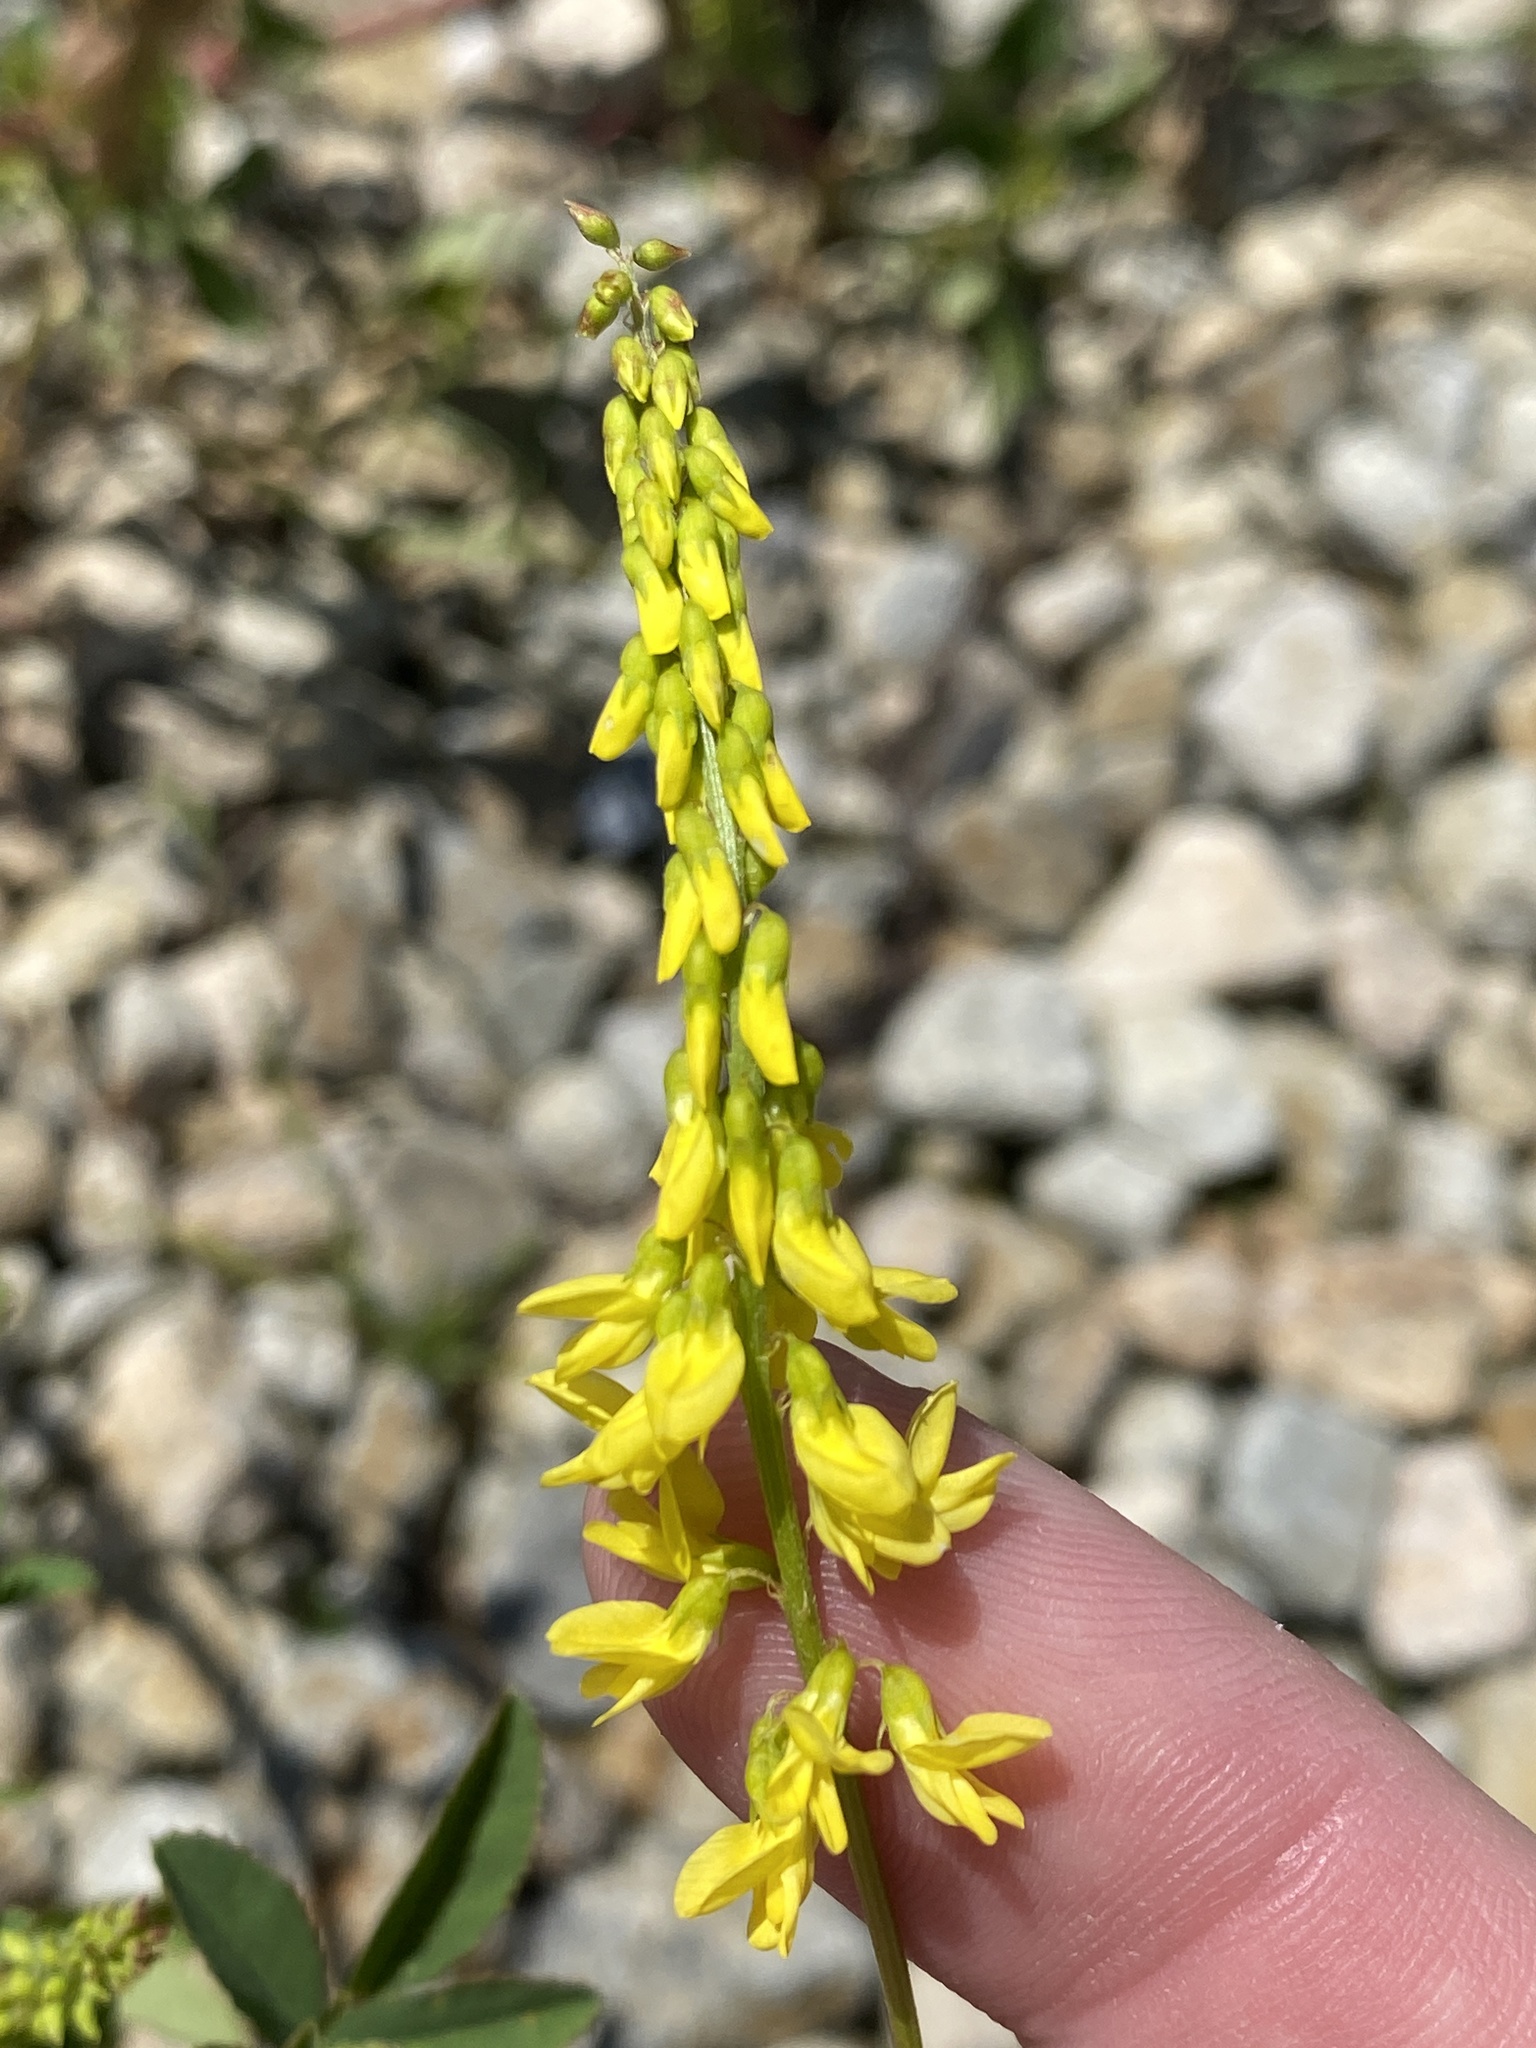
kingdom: Plantae
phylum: Tracheophyta
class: Magnoliopsida
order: Fabales
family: Fabaceae
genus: Melilotus
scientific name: Melilotus officinalis
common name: Sweetclover
